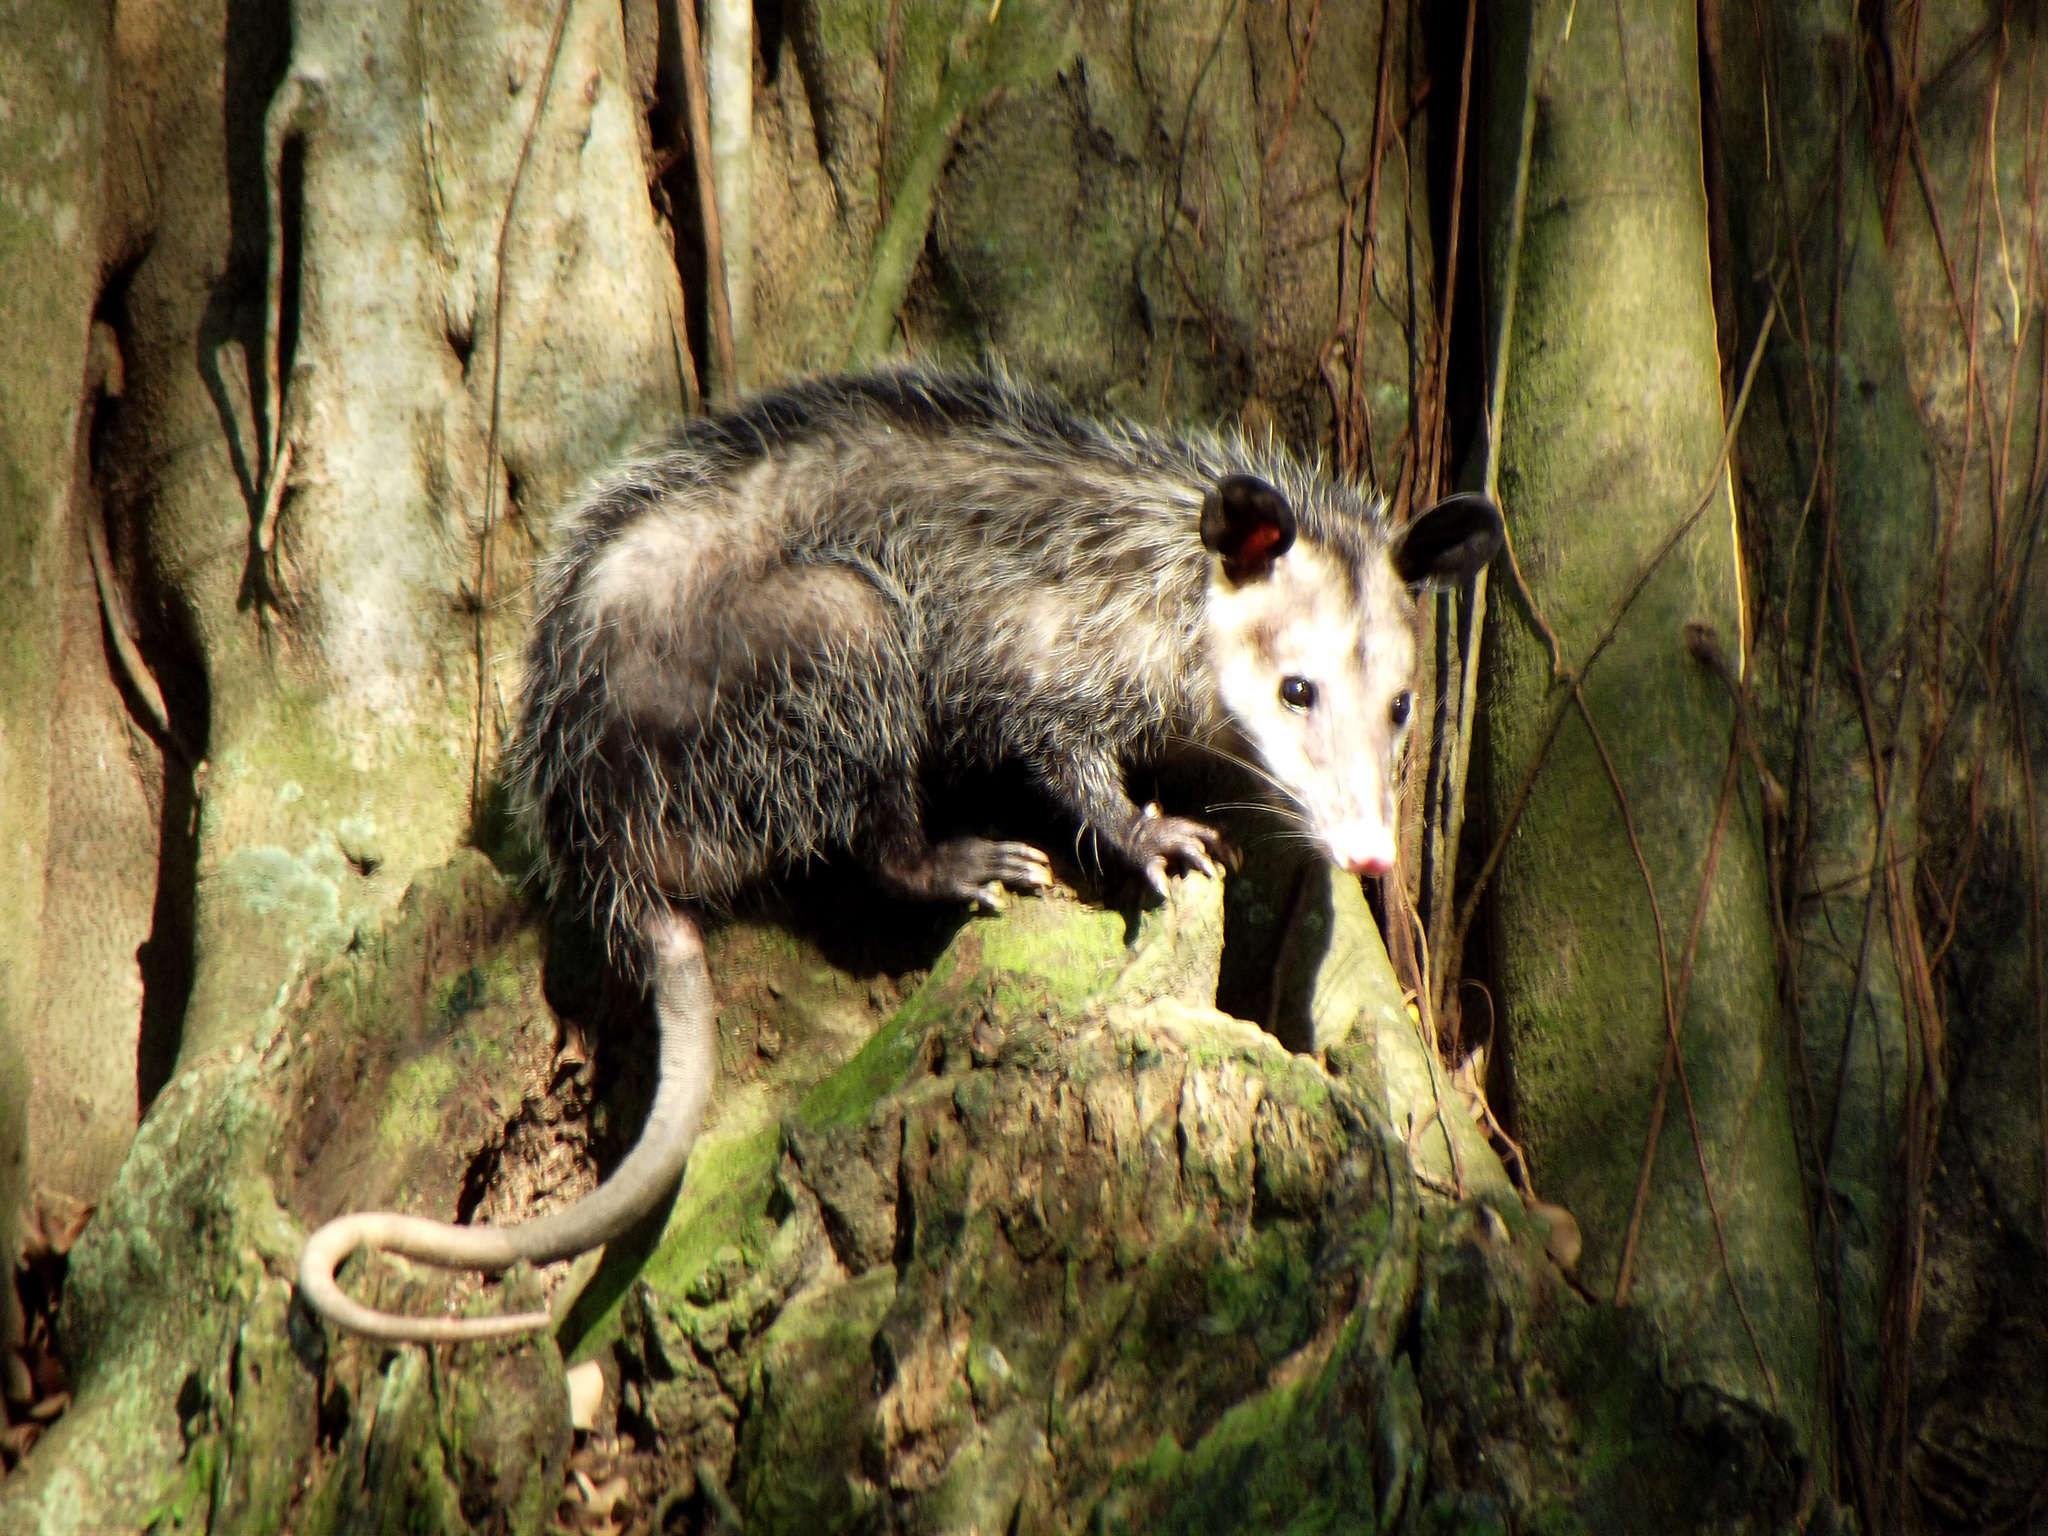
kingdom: Animalia
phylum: Chordata
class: Mammalia
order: Didelphimorphia
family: Didelphidae
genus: Didelphis
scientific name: Didelphis virginiana
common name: Virginia opossum
